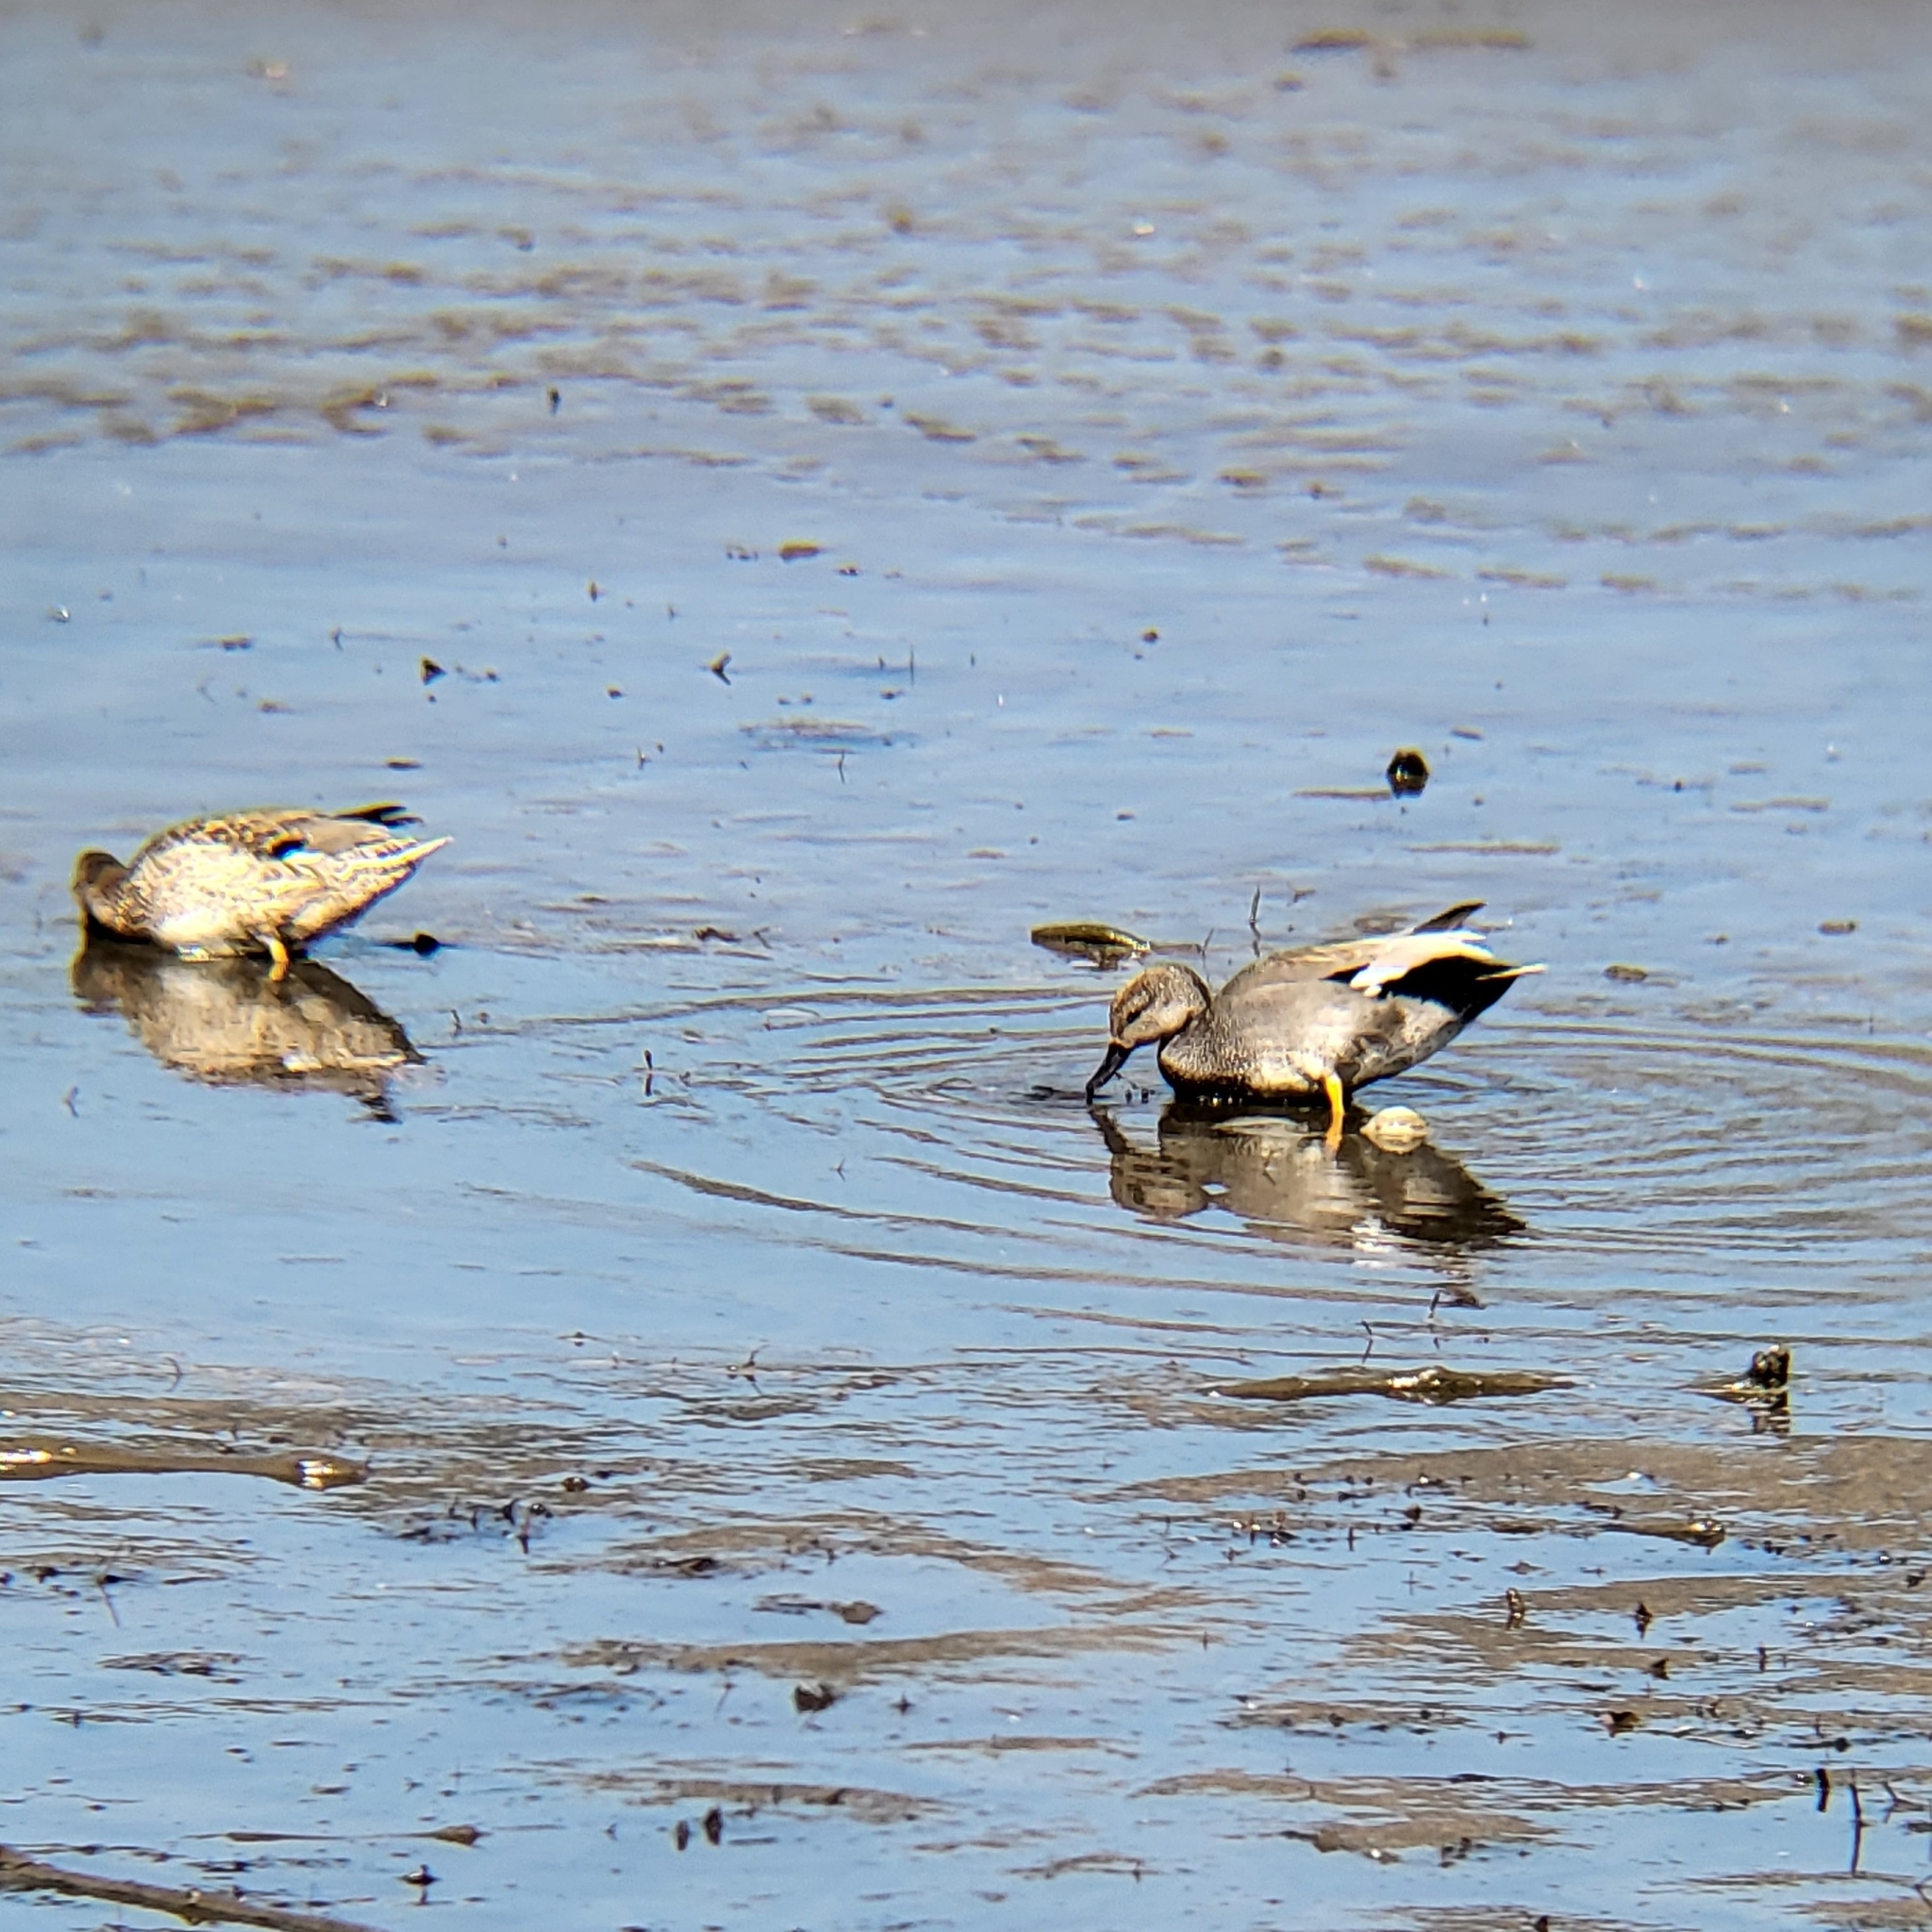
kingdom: Animalia
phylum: Chordata
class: Aves
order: Anseriformes
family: Anatidae
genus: Mareca
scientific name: Mareca strepera
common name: Gadwall
